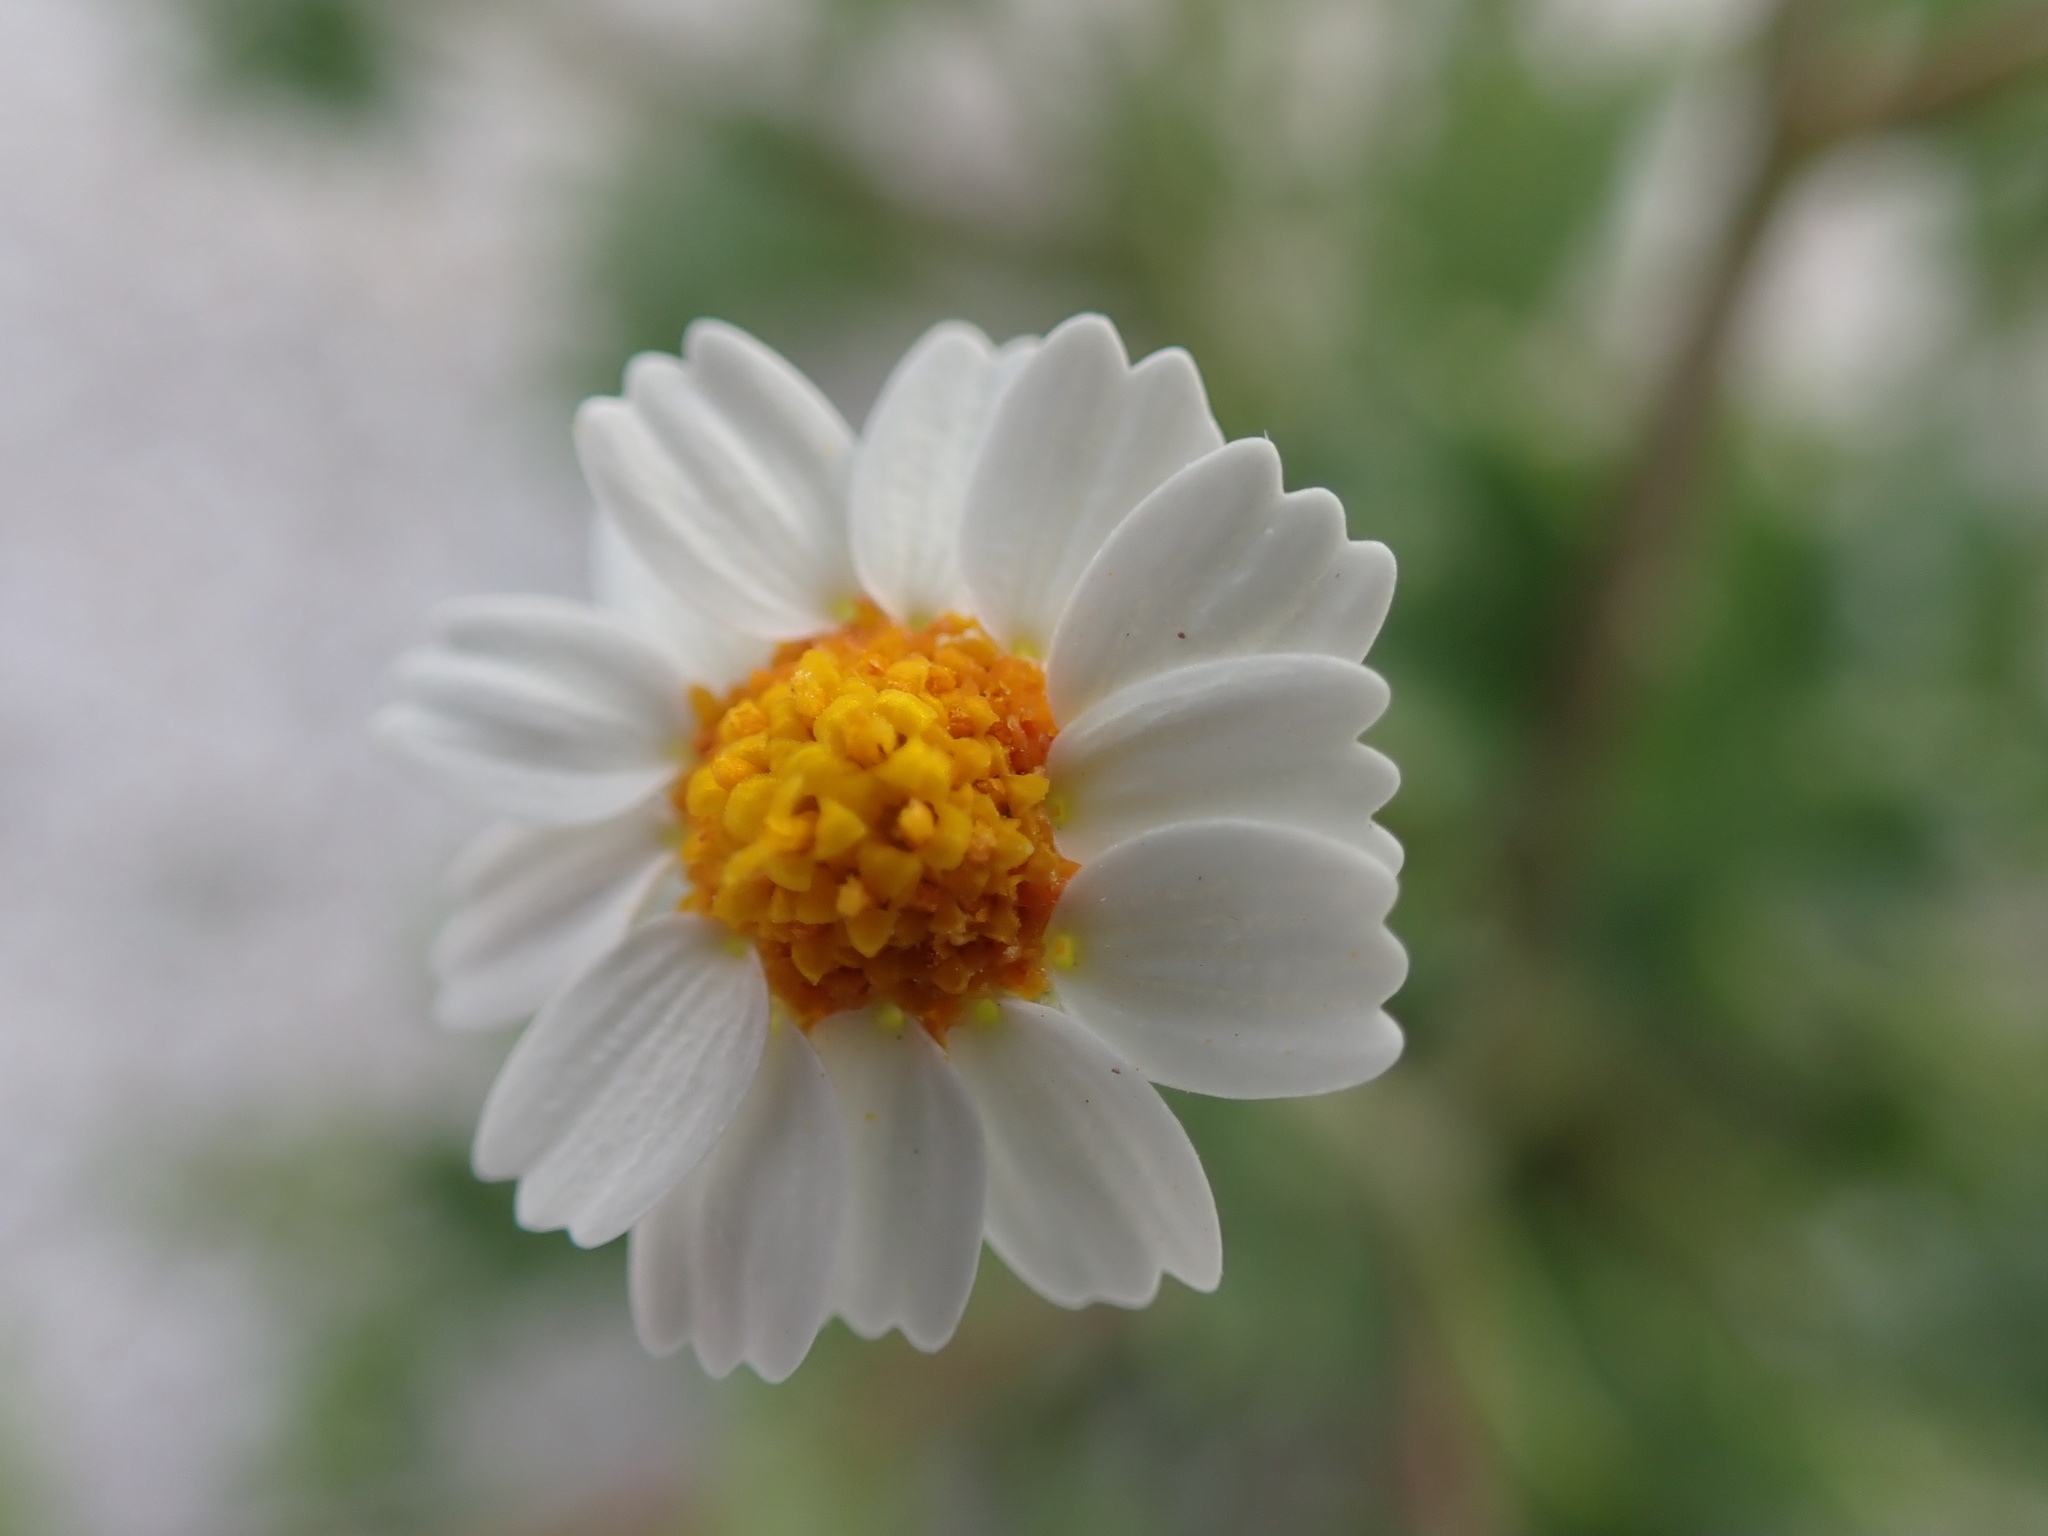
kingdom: Plantae
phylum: Tracheophyta
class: Magnoliopsida
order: Asterales
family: Asteraceae
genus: Laphamia
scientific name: Laphamia emoryi
